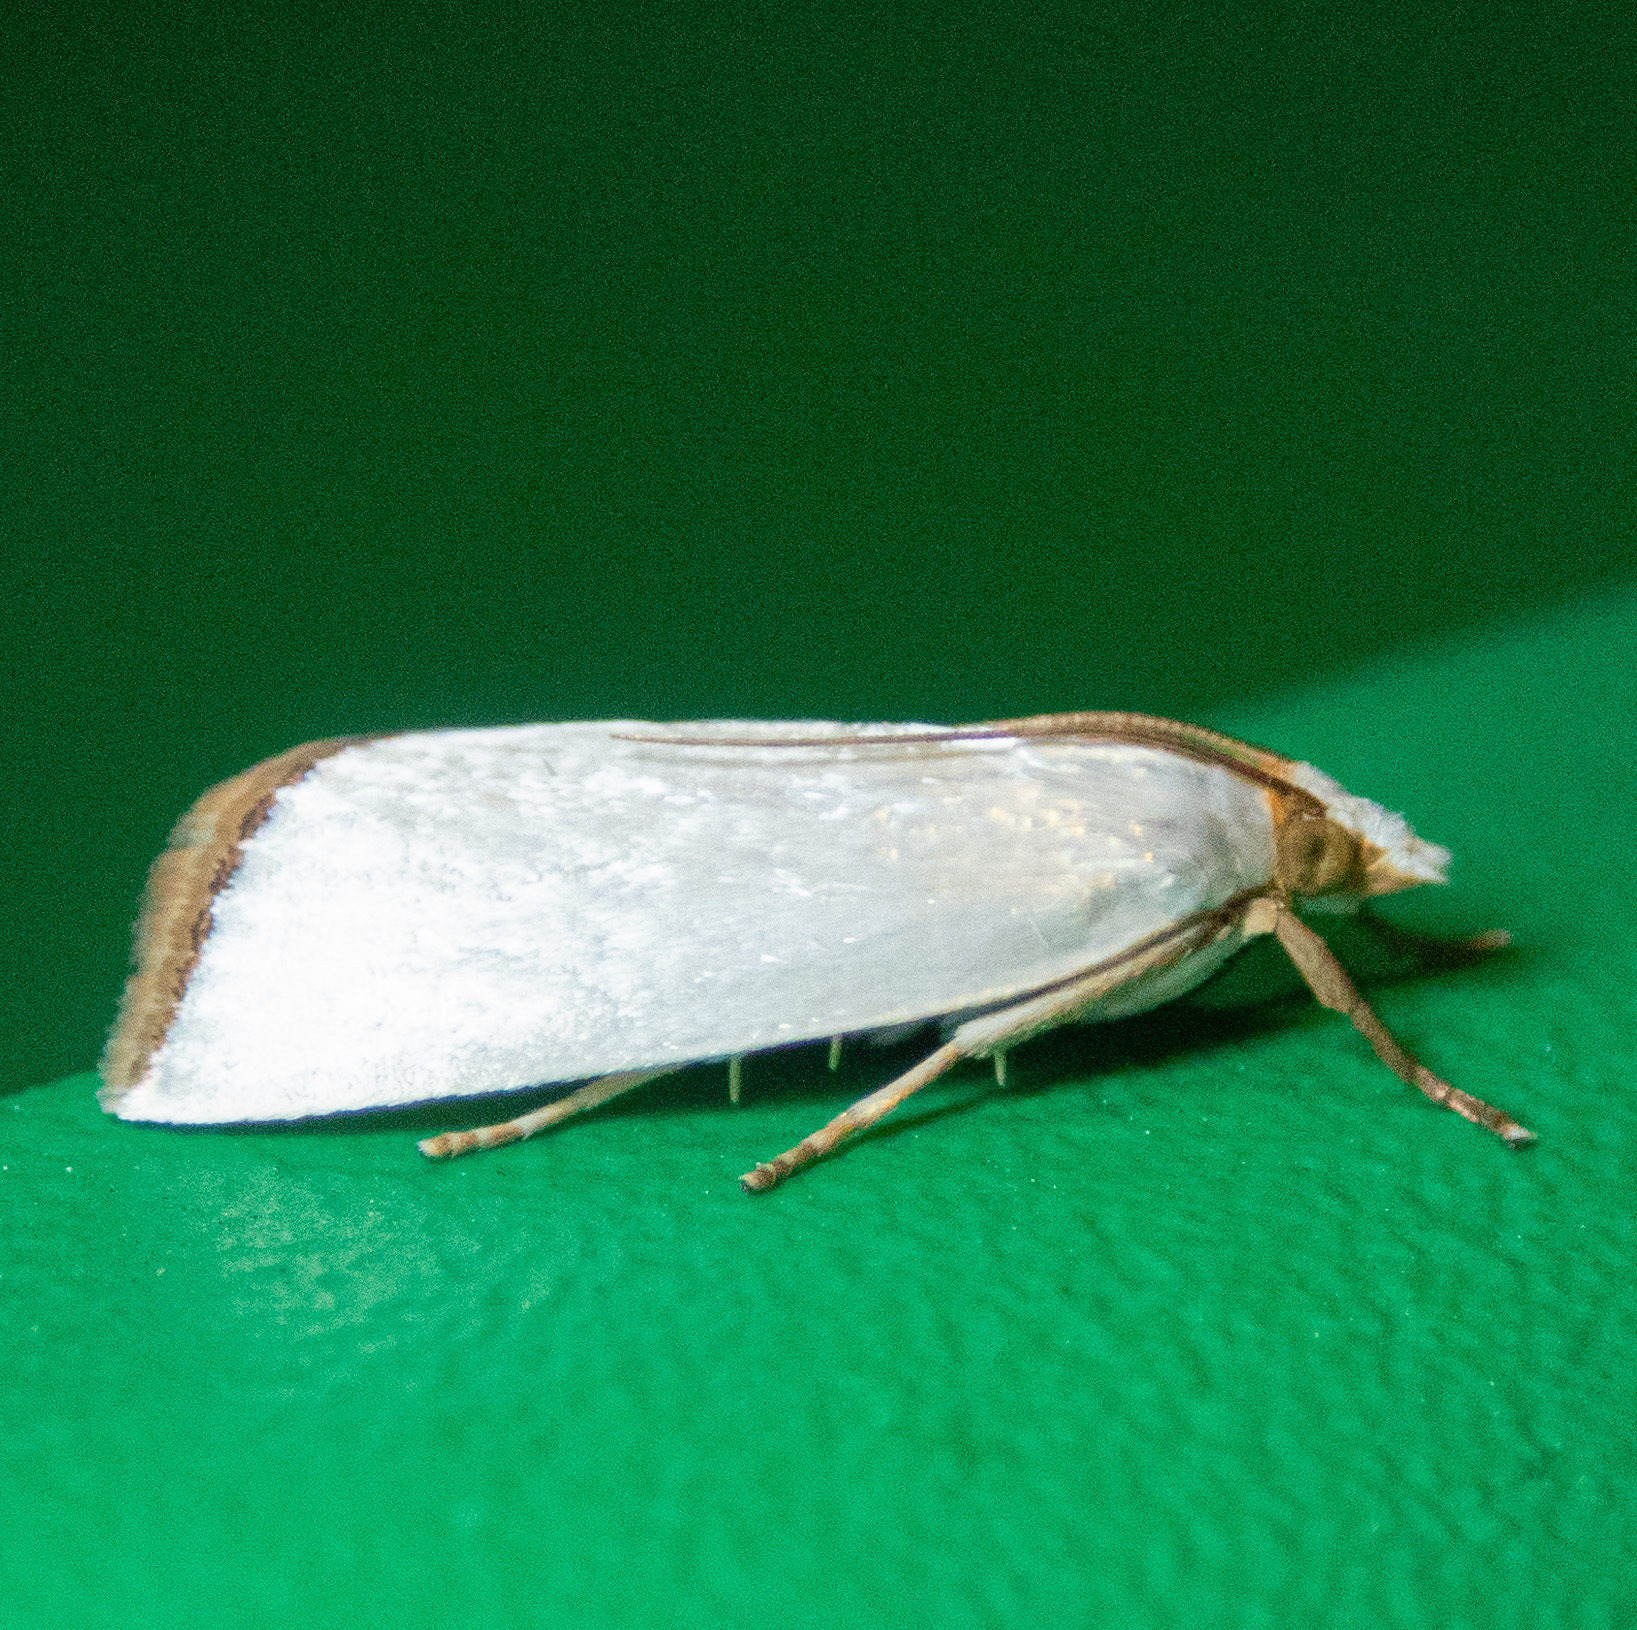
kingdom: Animalia
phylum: Arthropoda
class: Insecta
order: Lepidoptera
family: Crambidae
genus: Argyria
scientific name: Argyria nivalis
